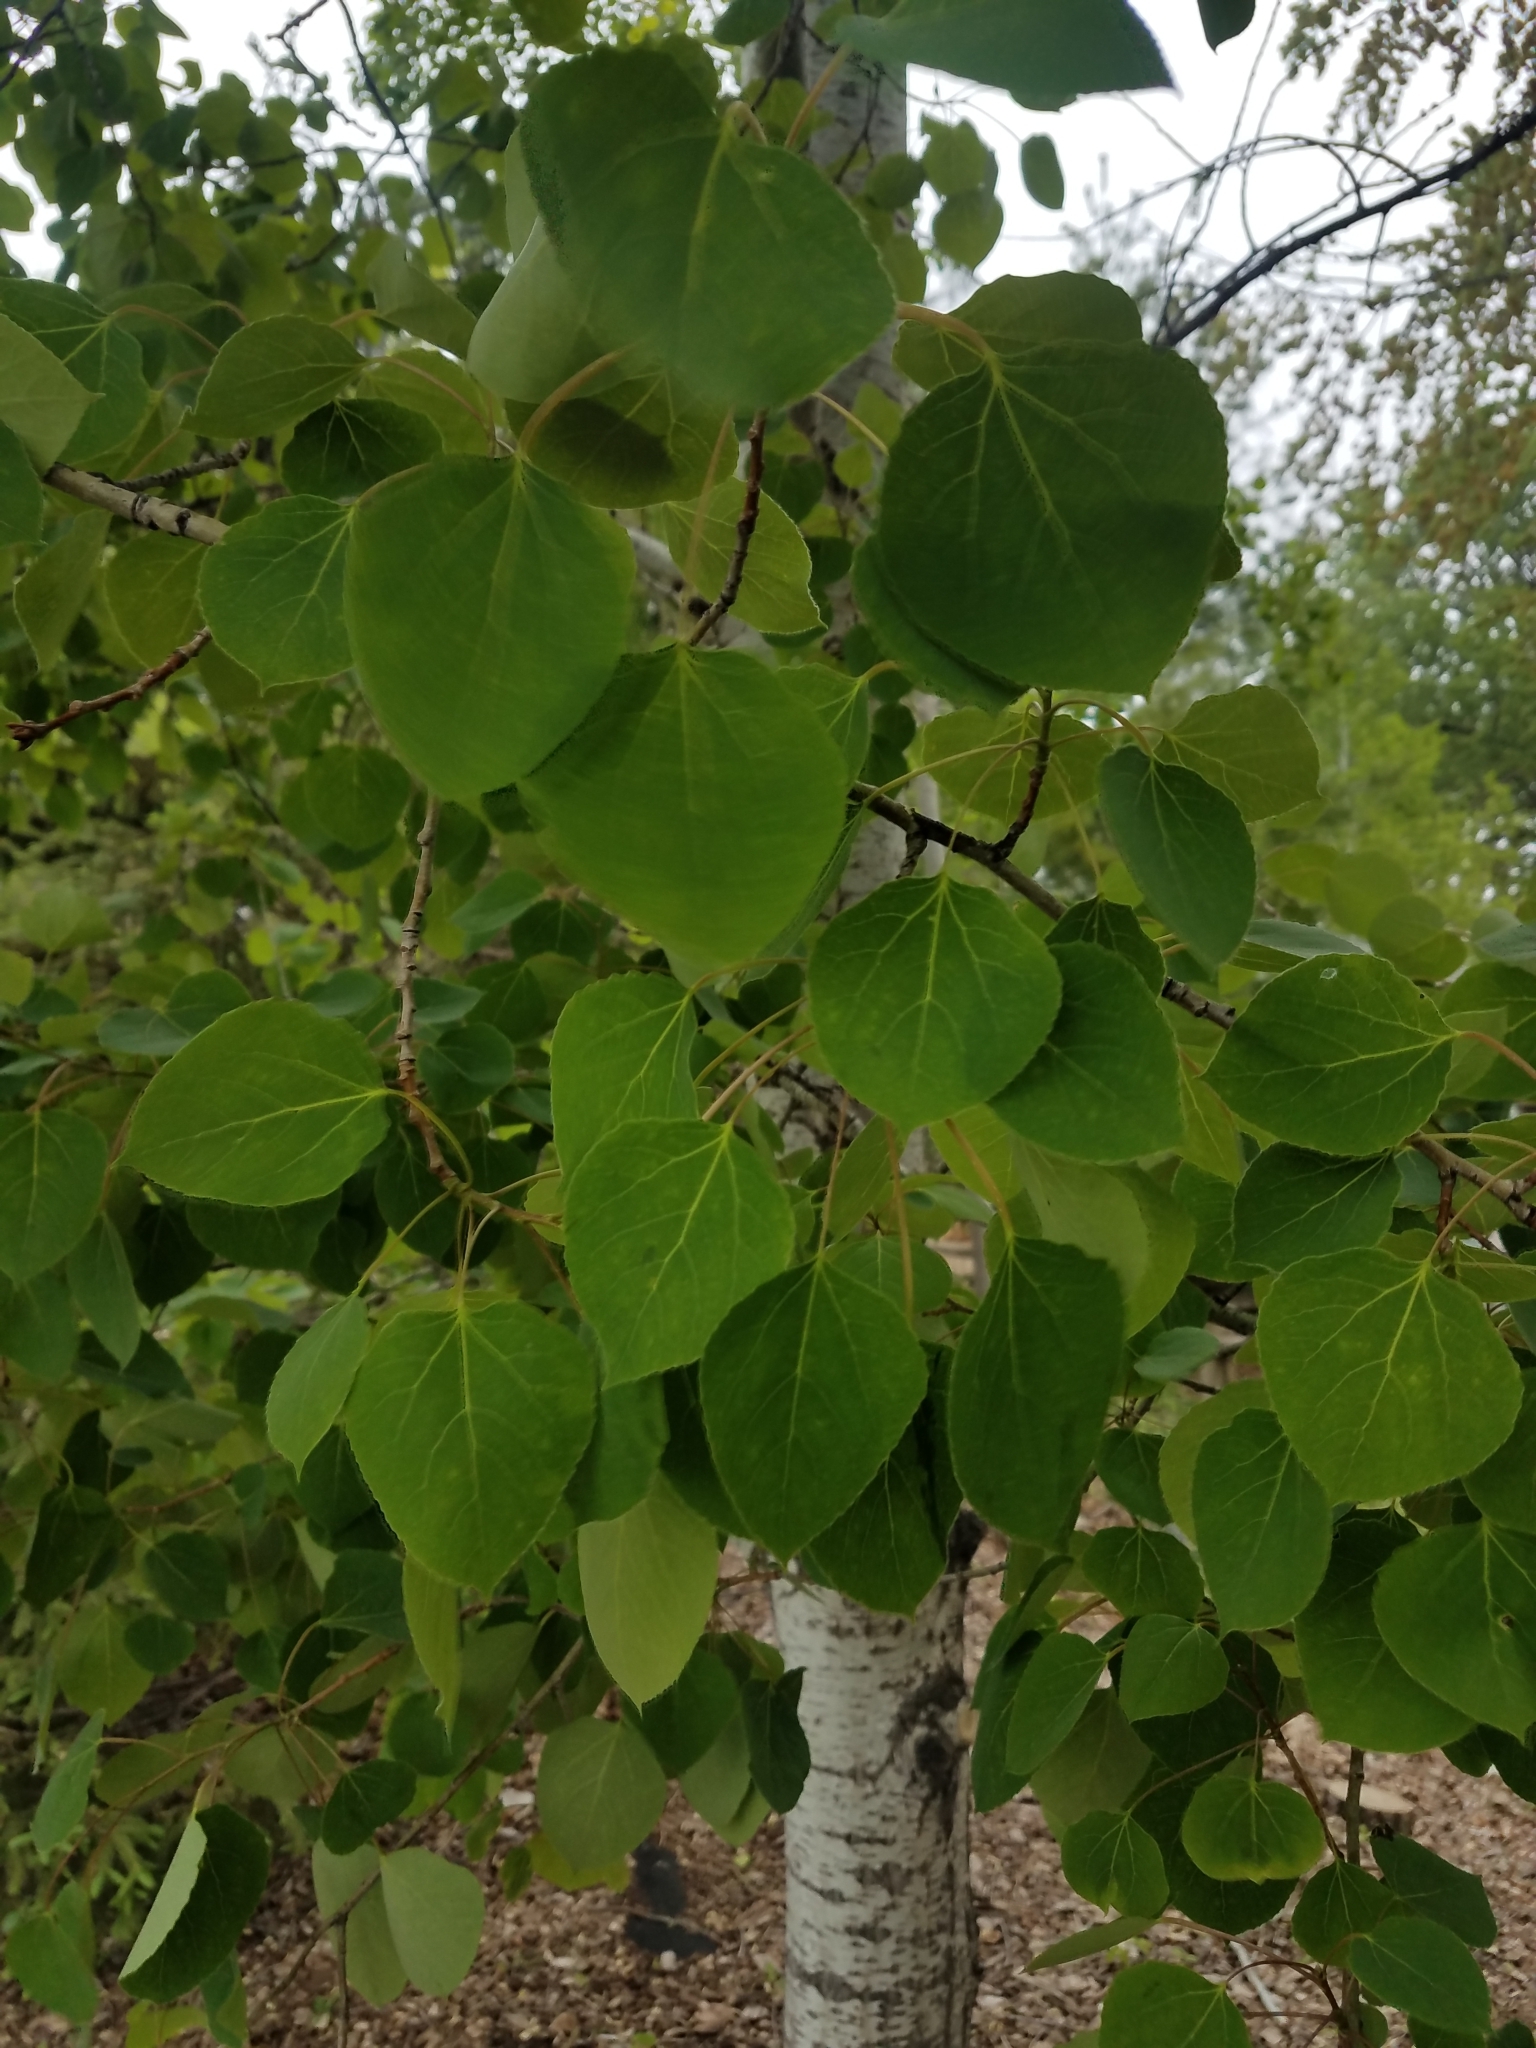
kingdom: Plantae
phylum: Tracheophyta
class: Magnoliopsida
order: Malpighiales
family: Salicaceae
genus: Populus
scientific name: Populus tremuloides
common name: Quaking aspen
